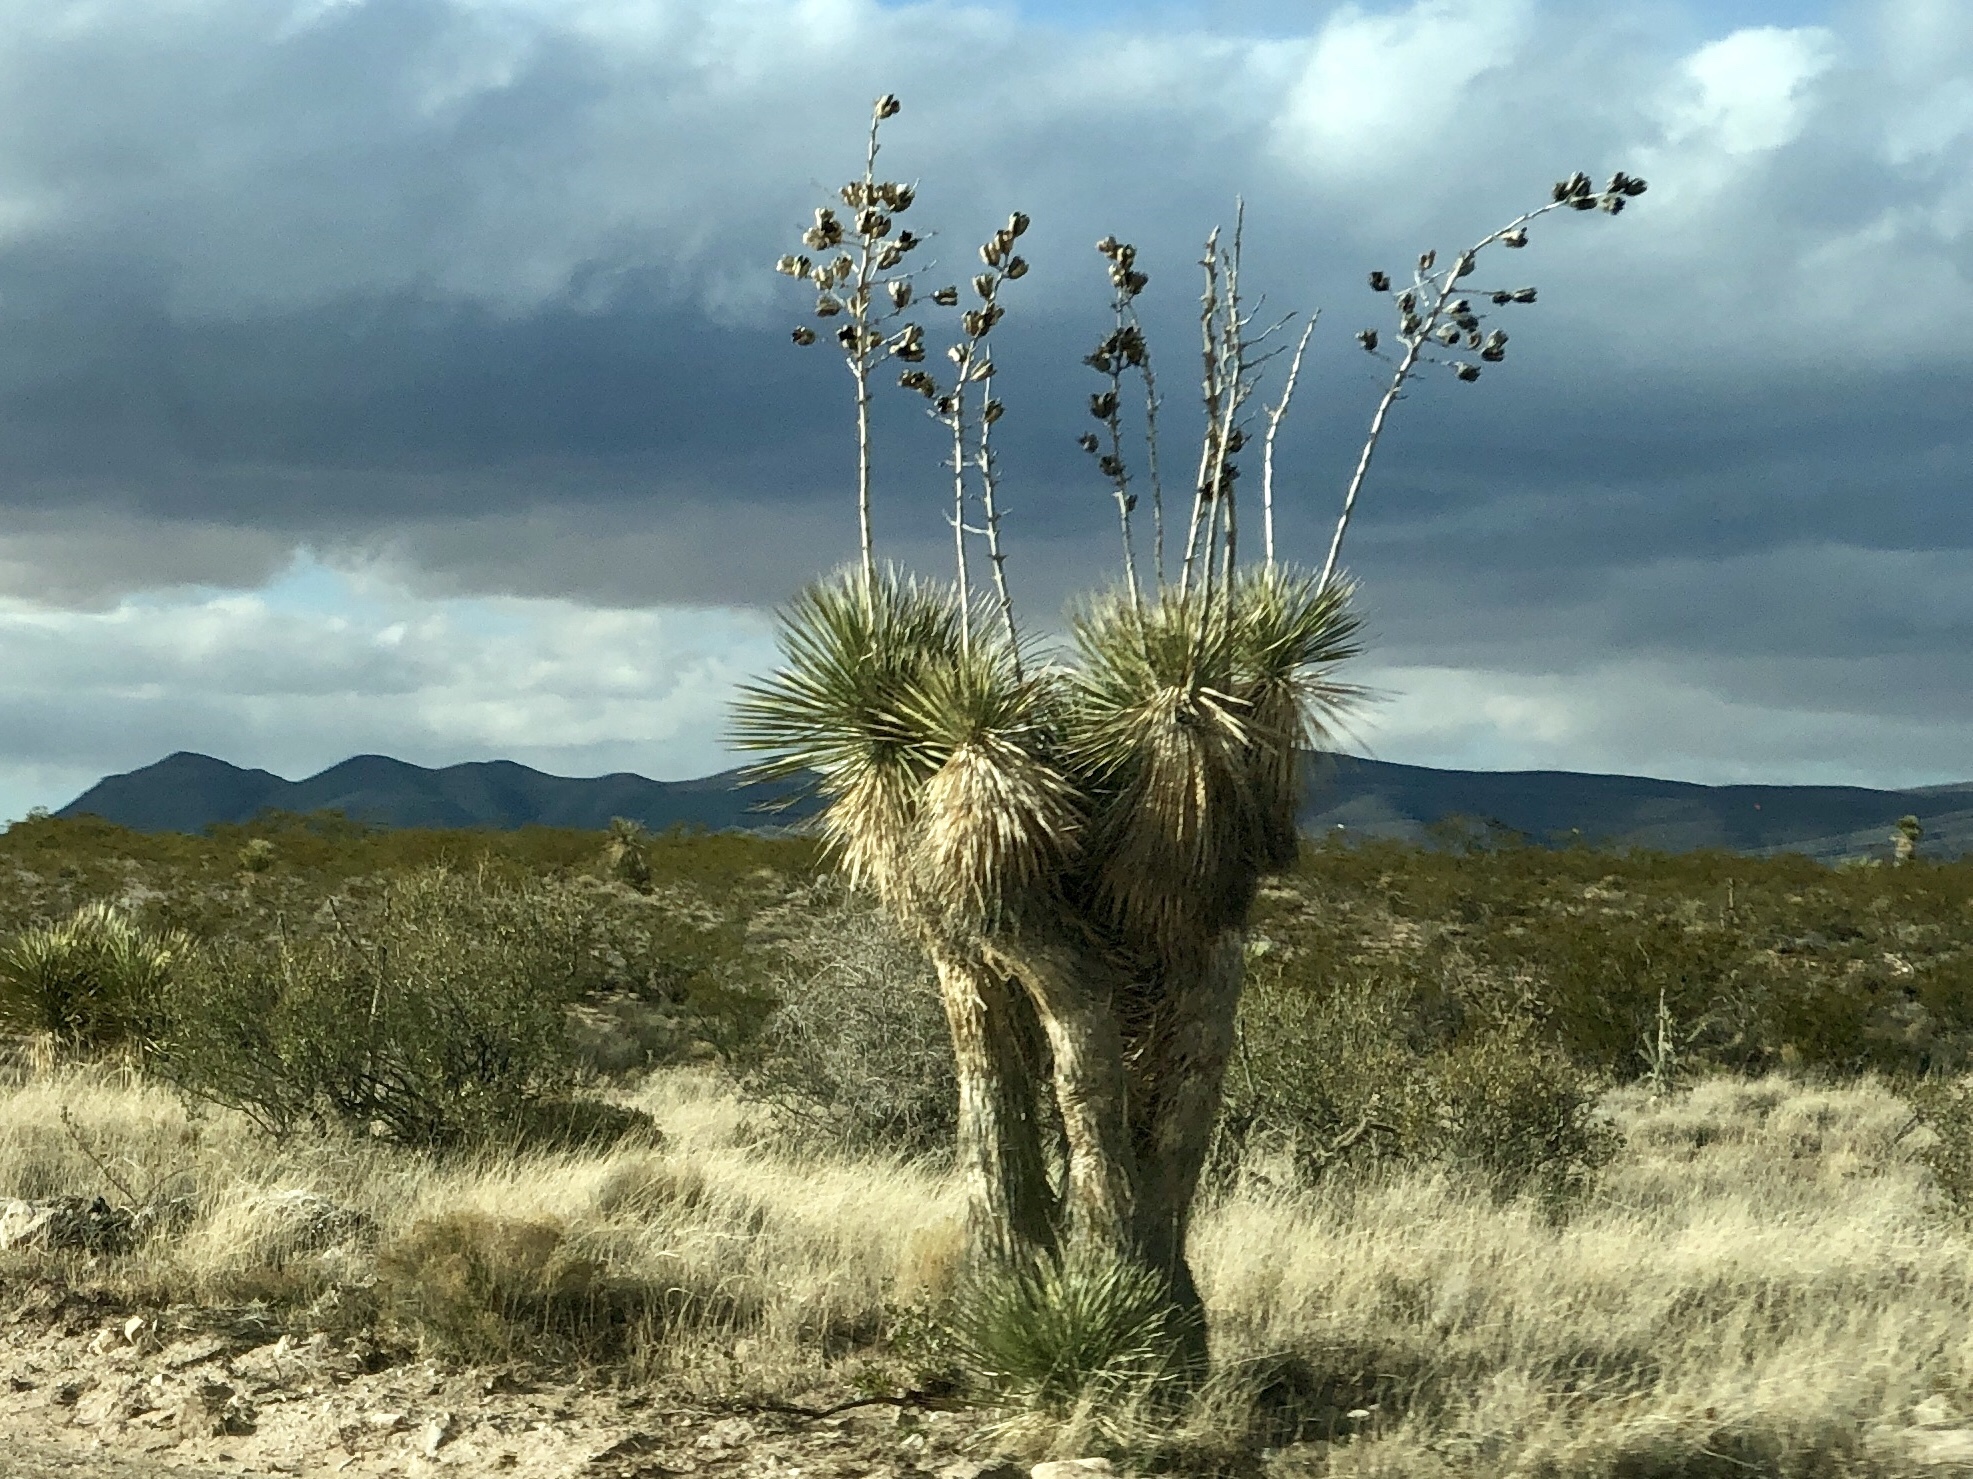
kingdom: Plantae
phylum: Tracheophyta
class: Liliopsida
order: Asparagales
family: Asparagaceae
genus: Yucca
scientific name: Yucca elata
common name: Palmella
